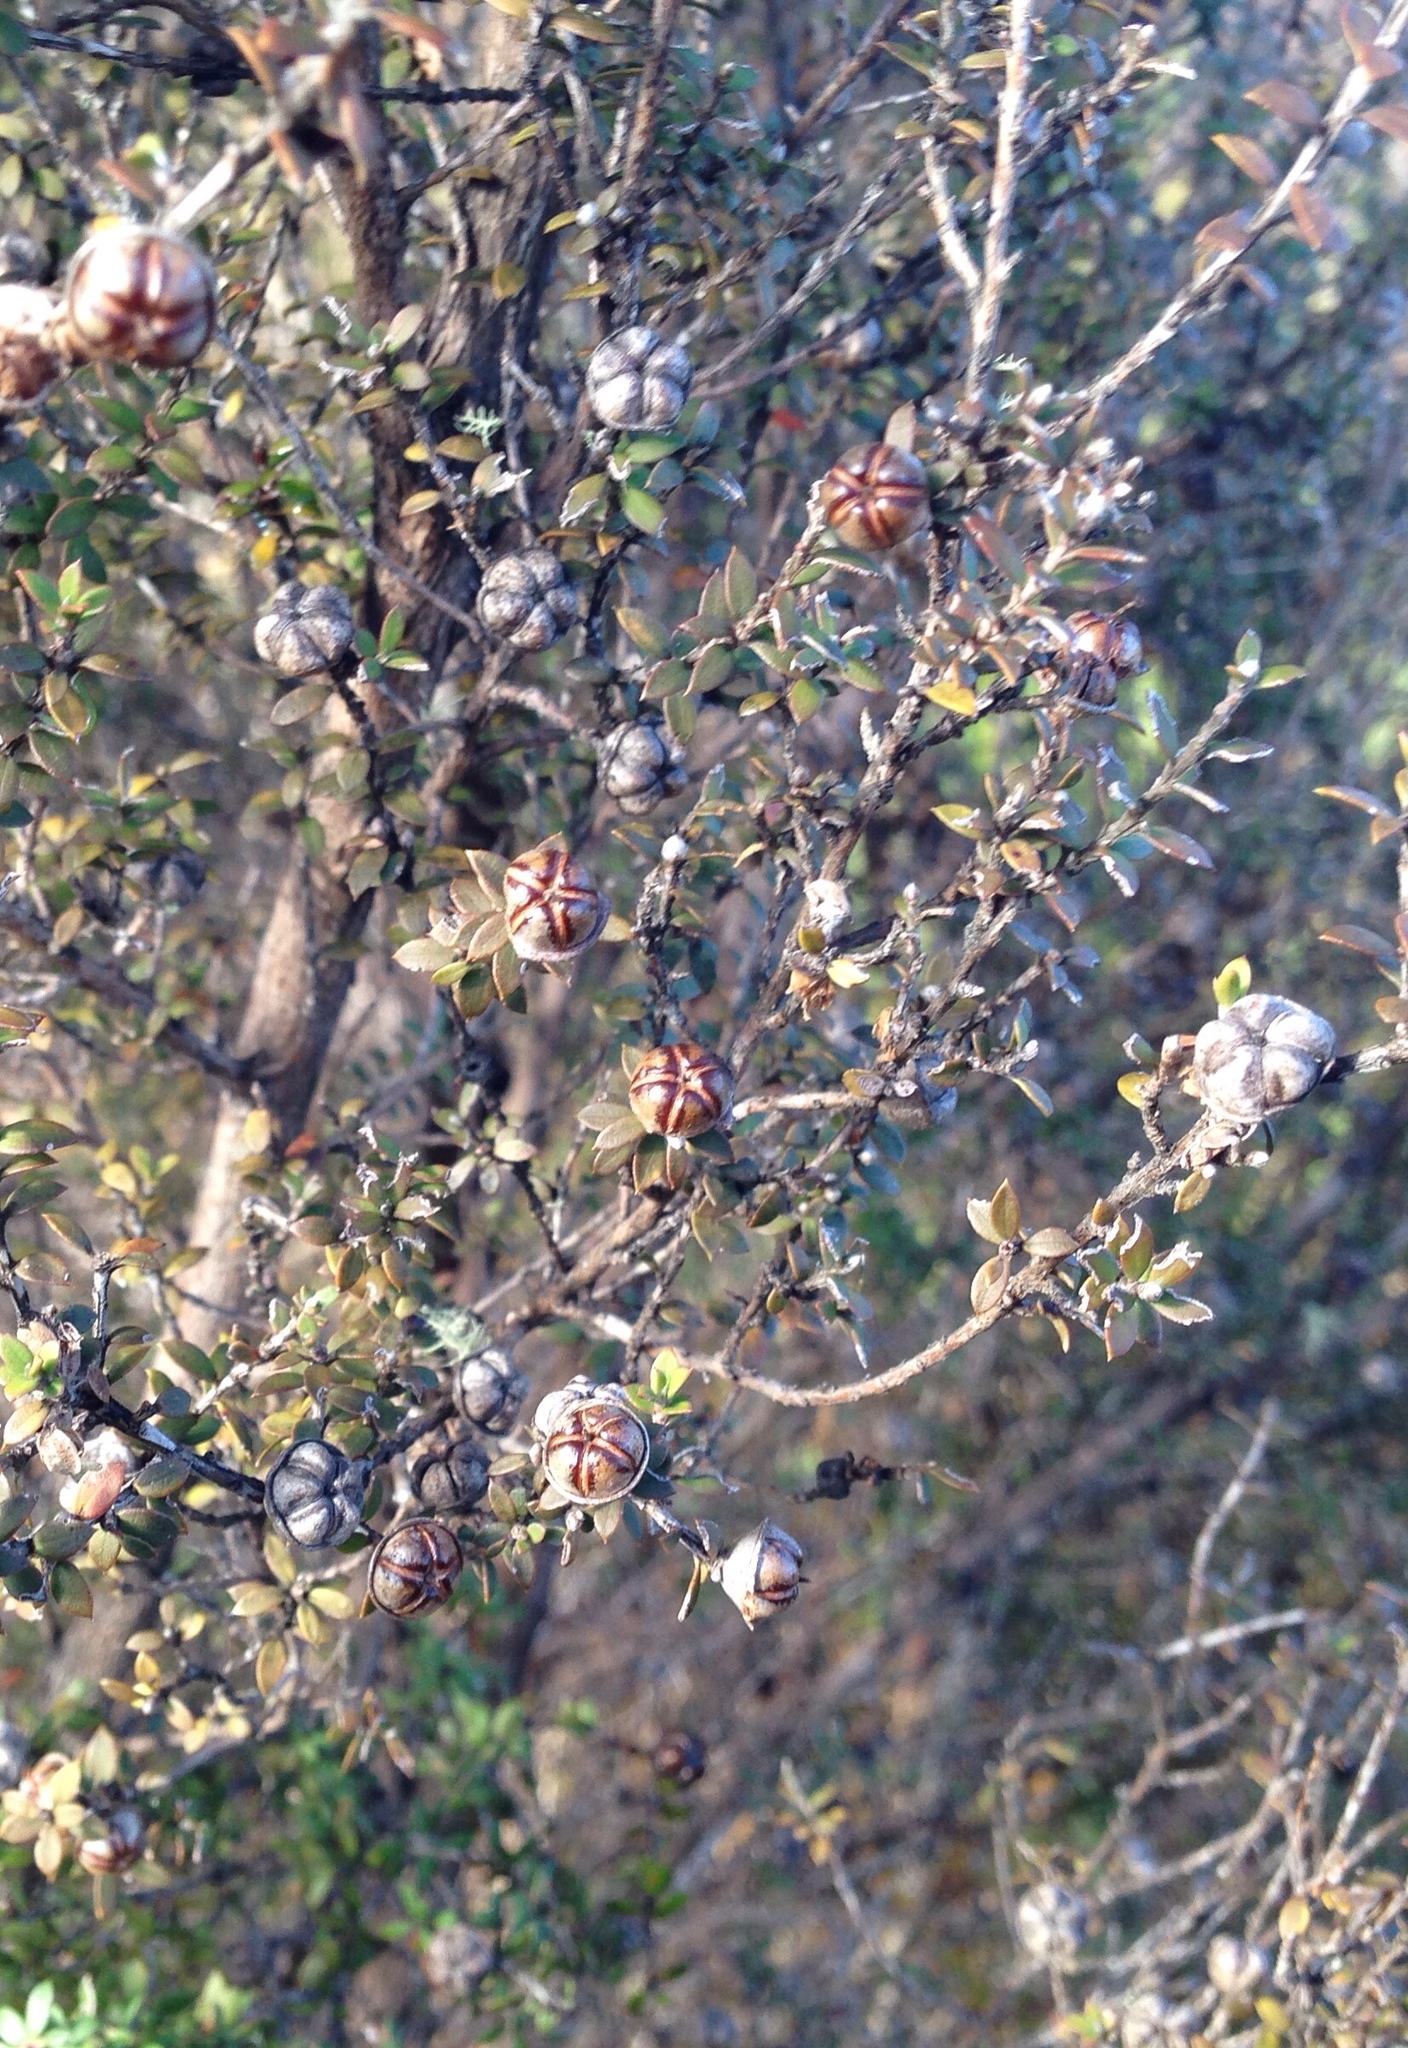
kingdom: Plantae
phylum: Tracheophyta
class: Magnoliopsida
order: Myrtales
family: Myrtaceae
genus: Leptospermum
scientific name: Leptospermum scoparium
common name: Broom tea-tree
